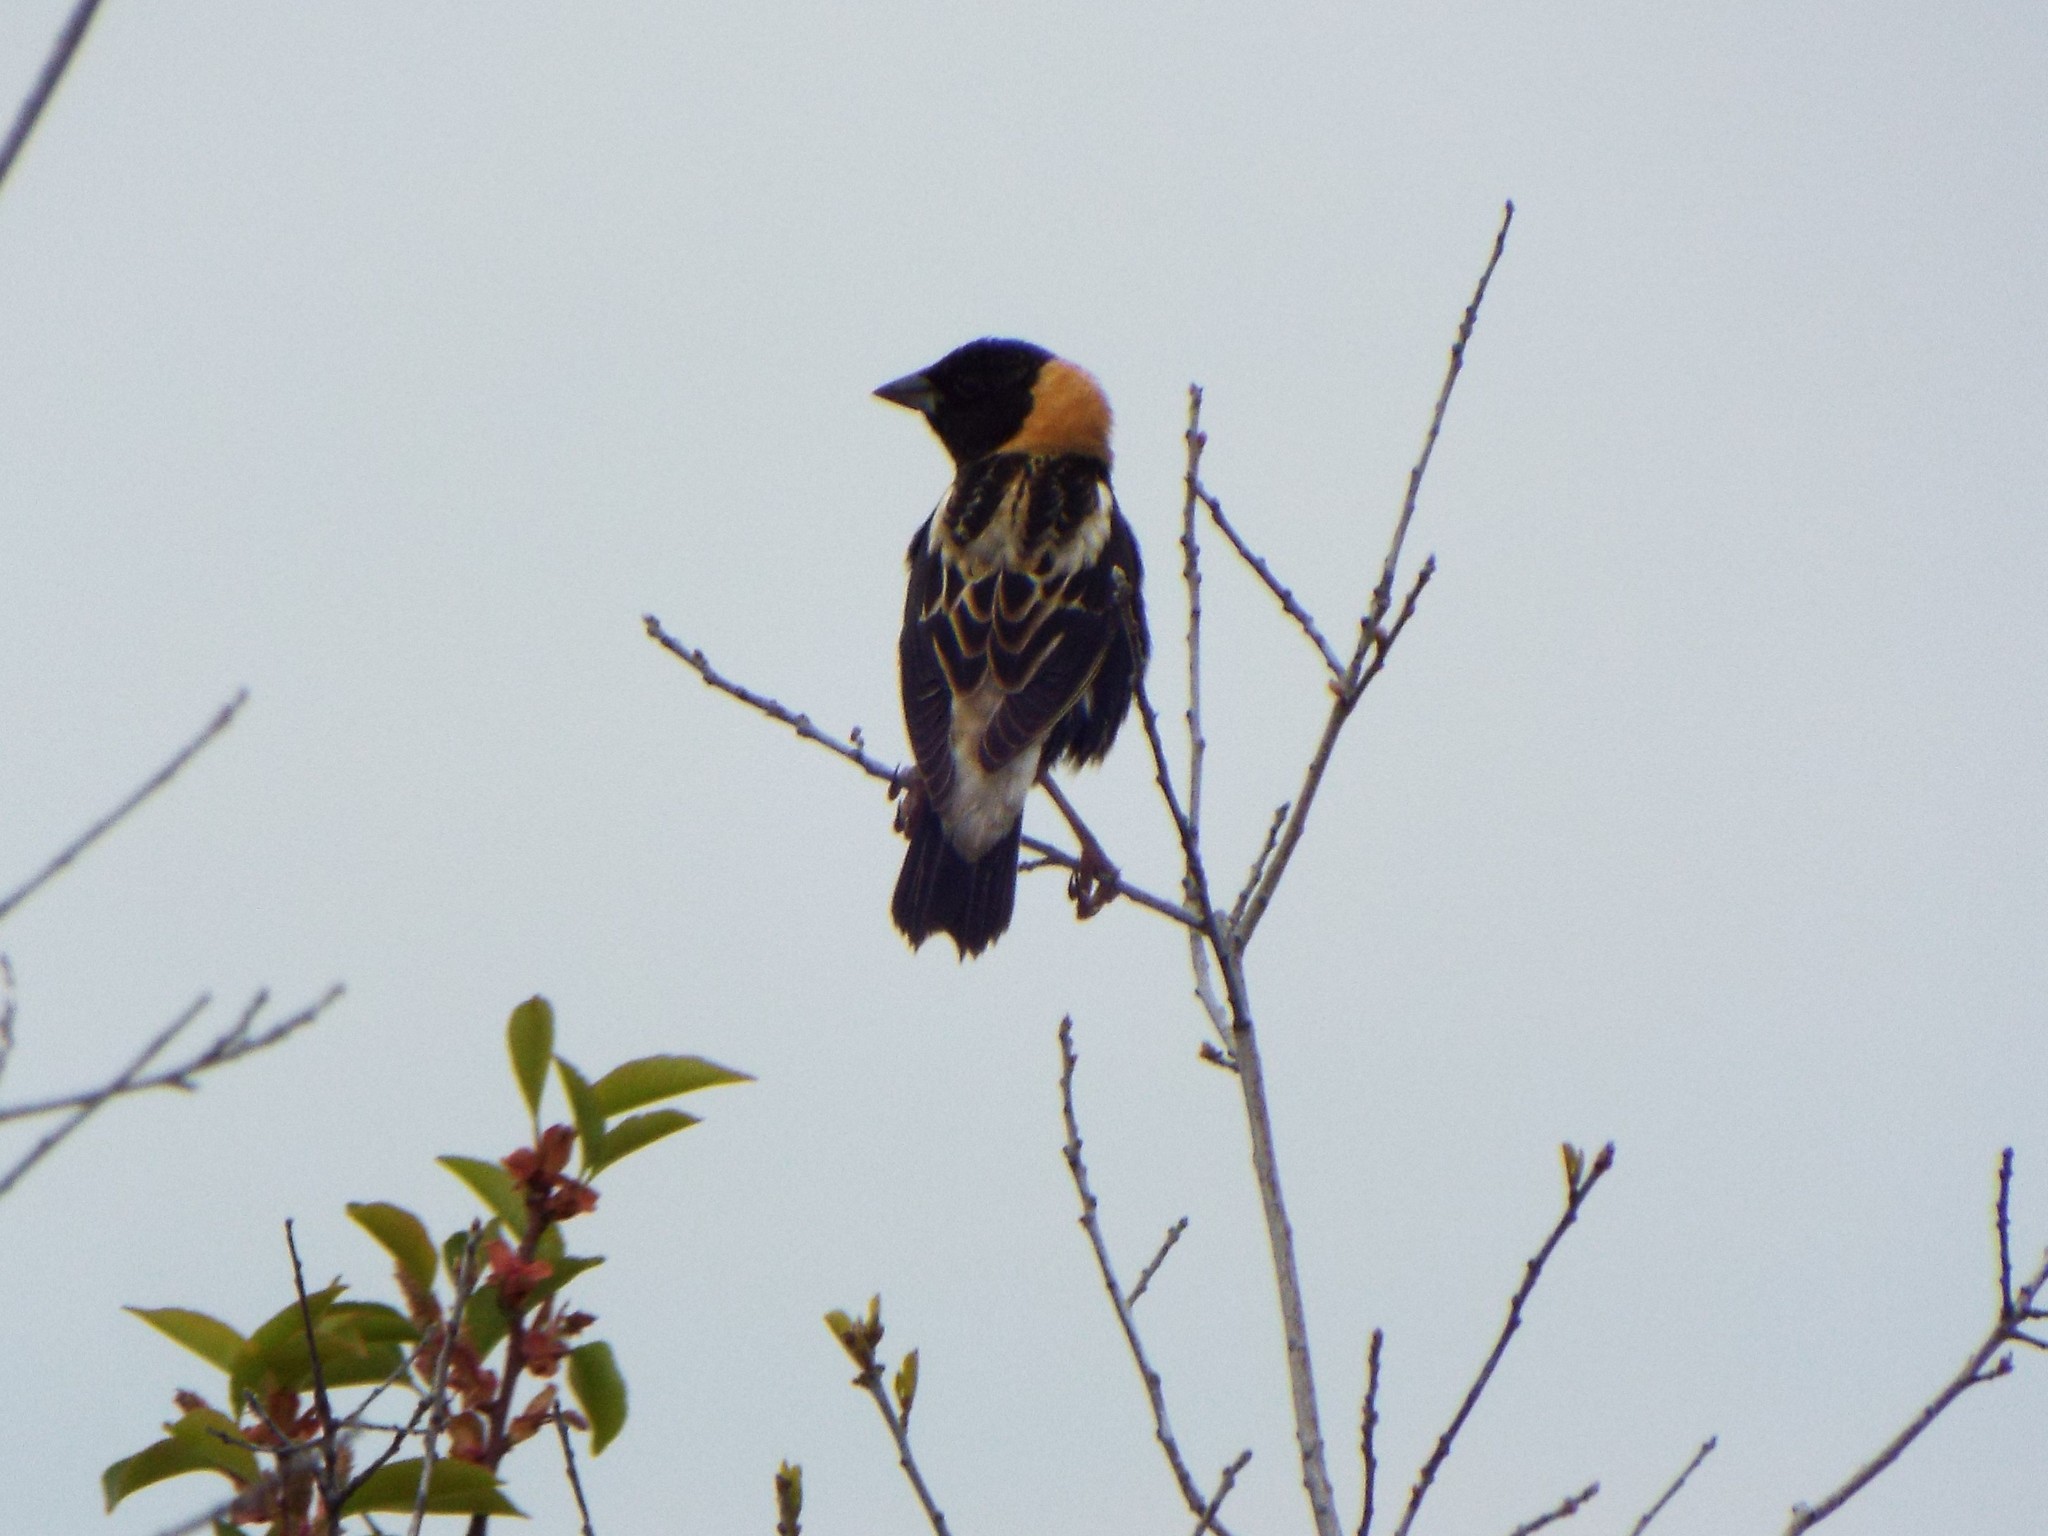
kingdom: Animalia
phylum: Chordata
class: Aves
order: Passeriformes
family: Icteridae
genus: Dolichonyx
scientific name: Dolichonyx oryzivorus
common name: Bobolink
